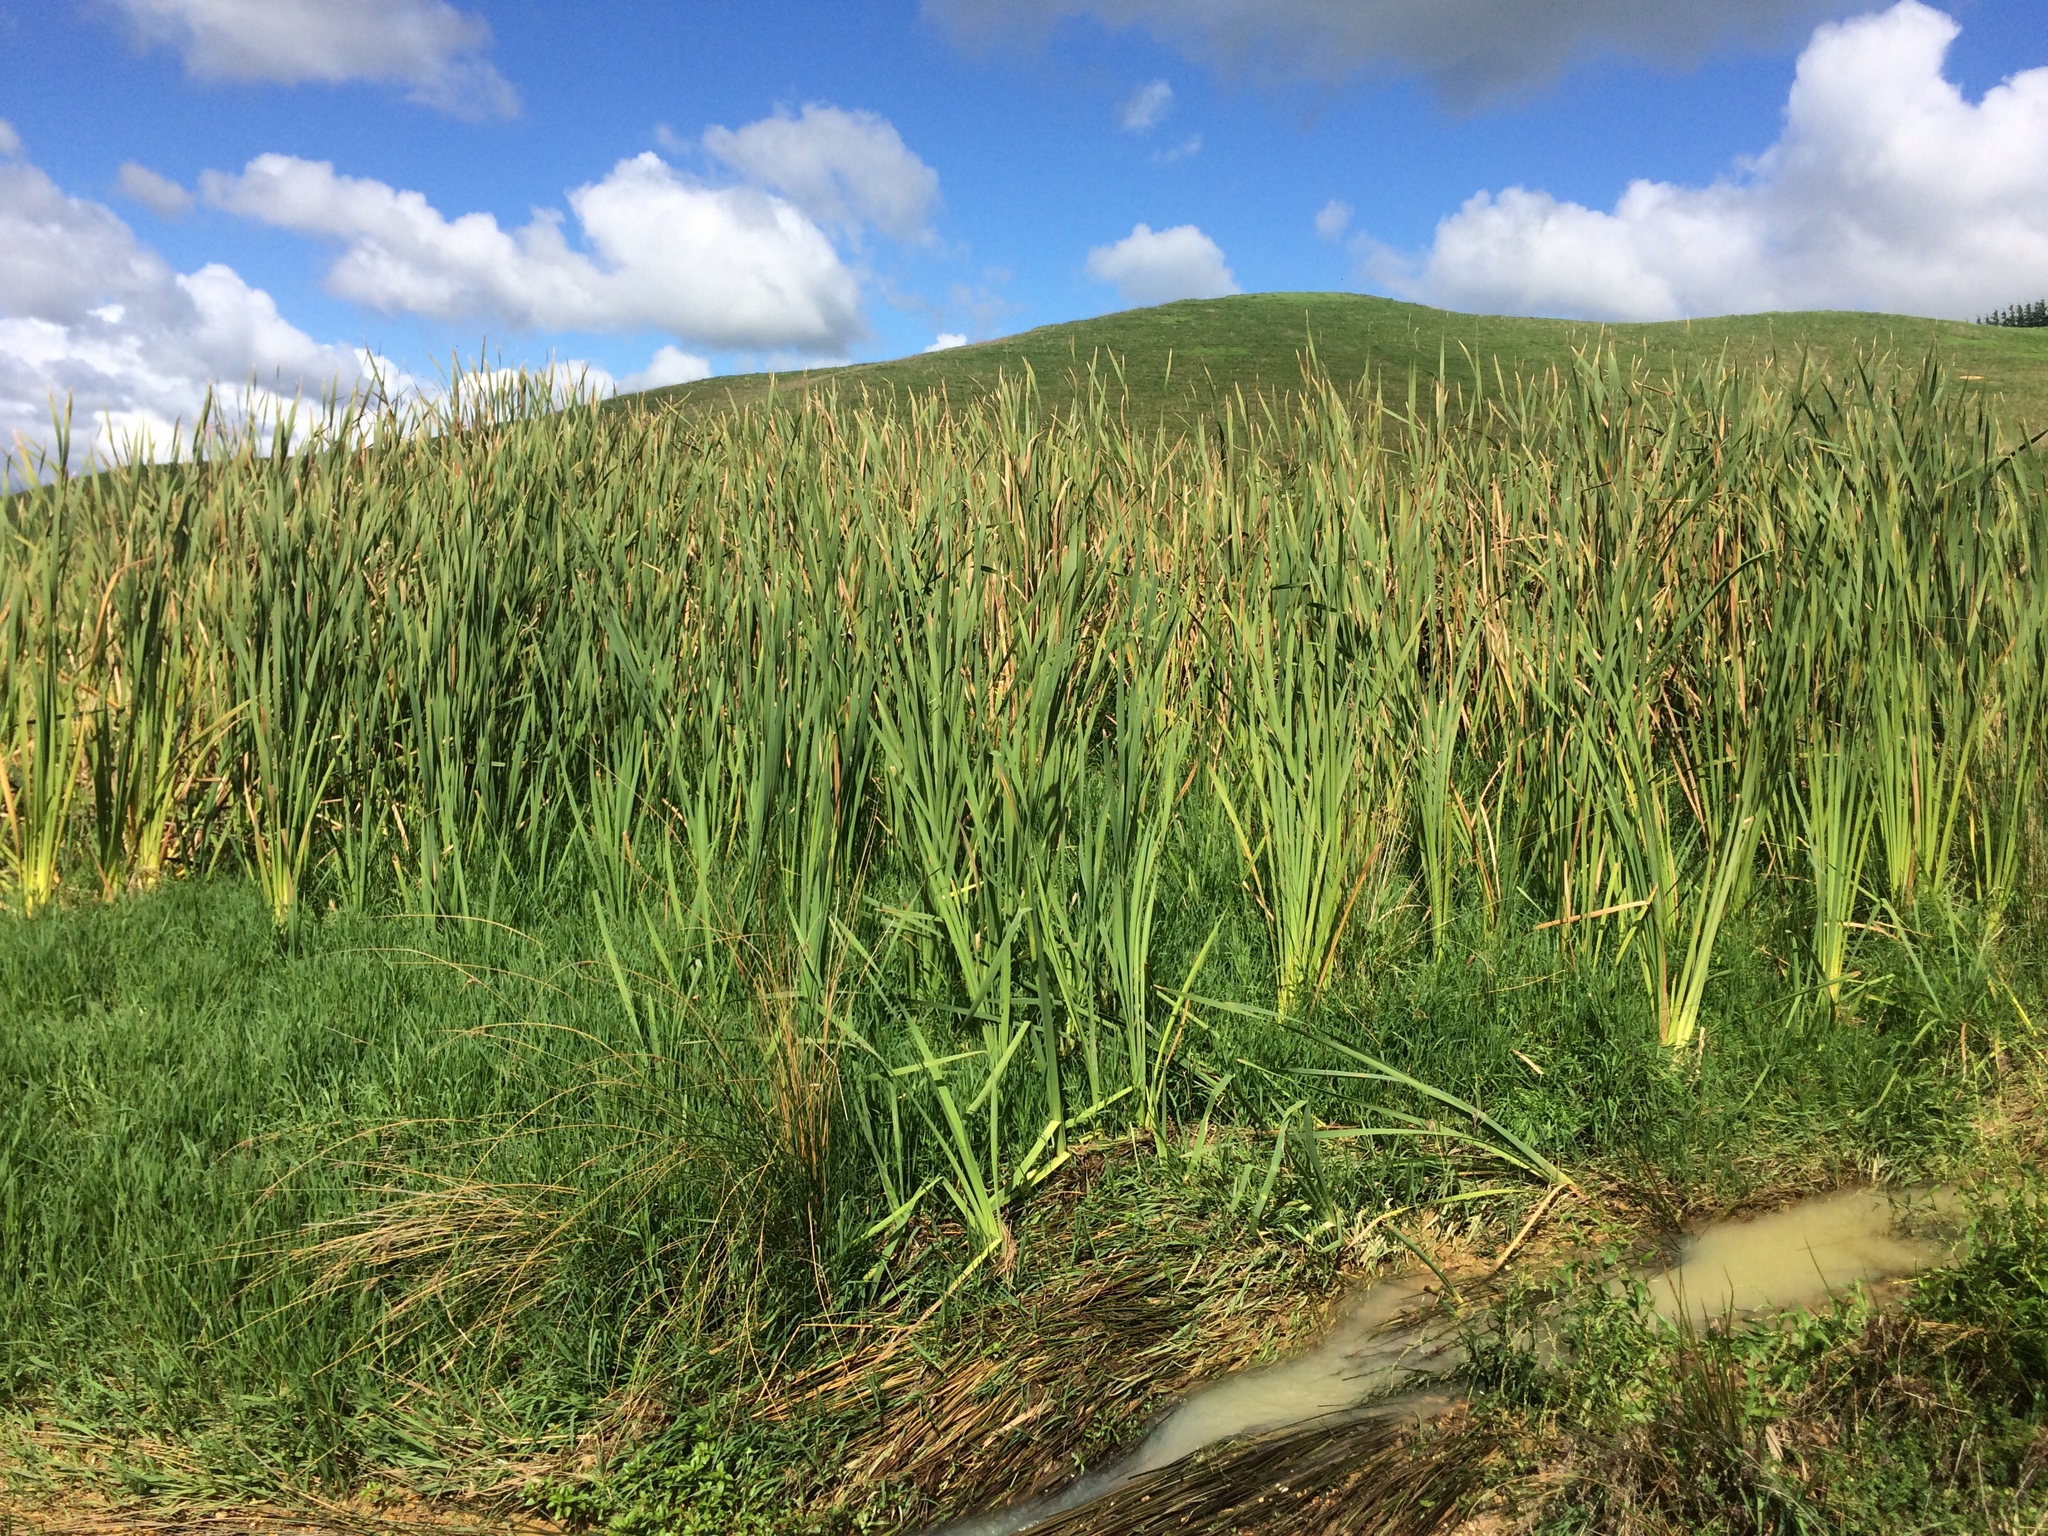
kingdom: Plantae
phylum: Tracheophyta
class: Liliopsida
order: Poales
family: Typhaceae
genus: Typha
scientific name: Typha orientalis
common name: Bullrush
